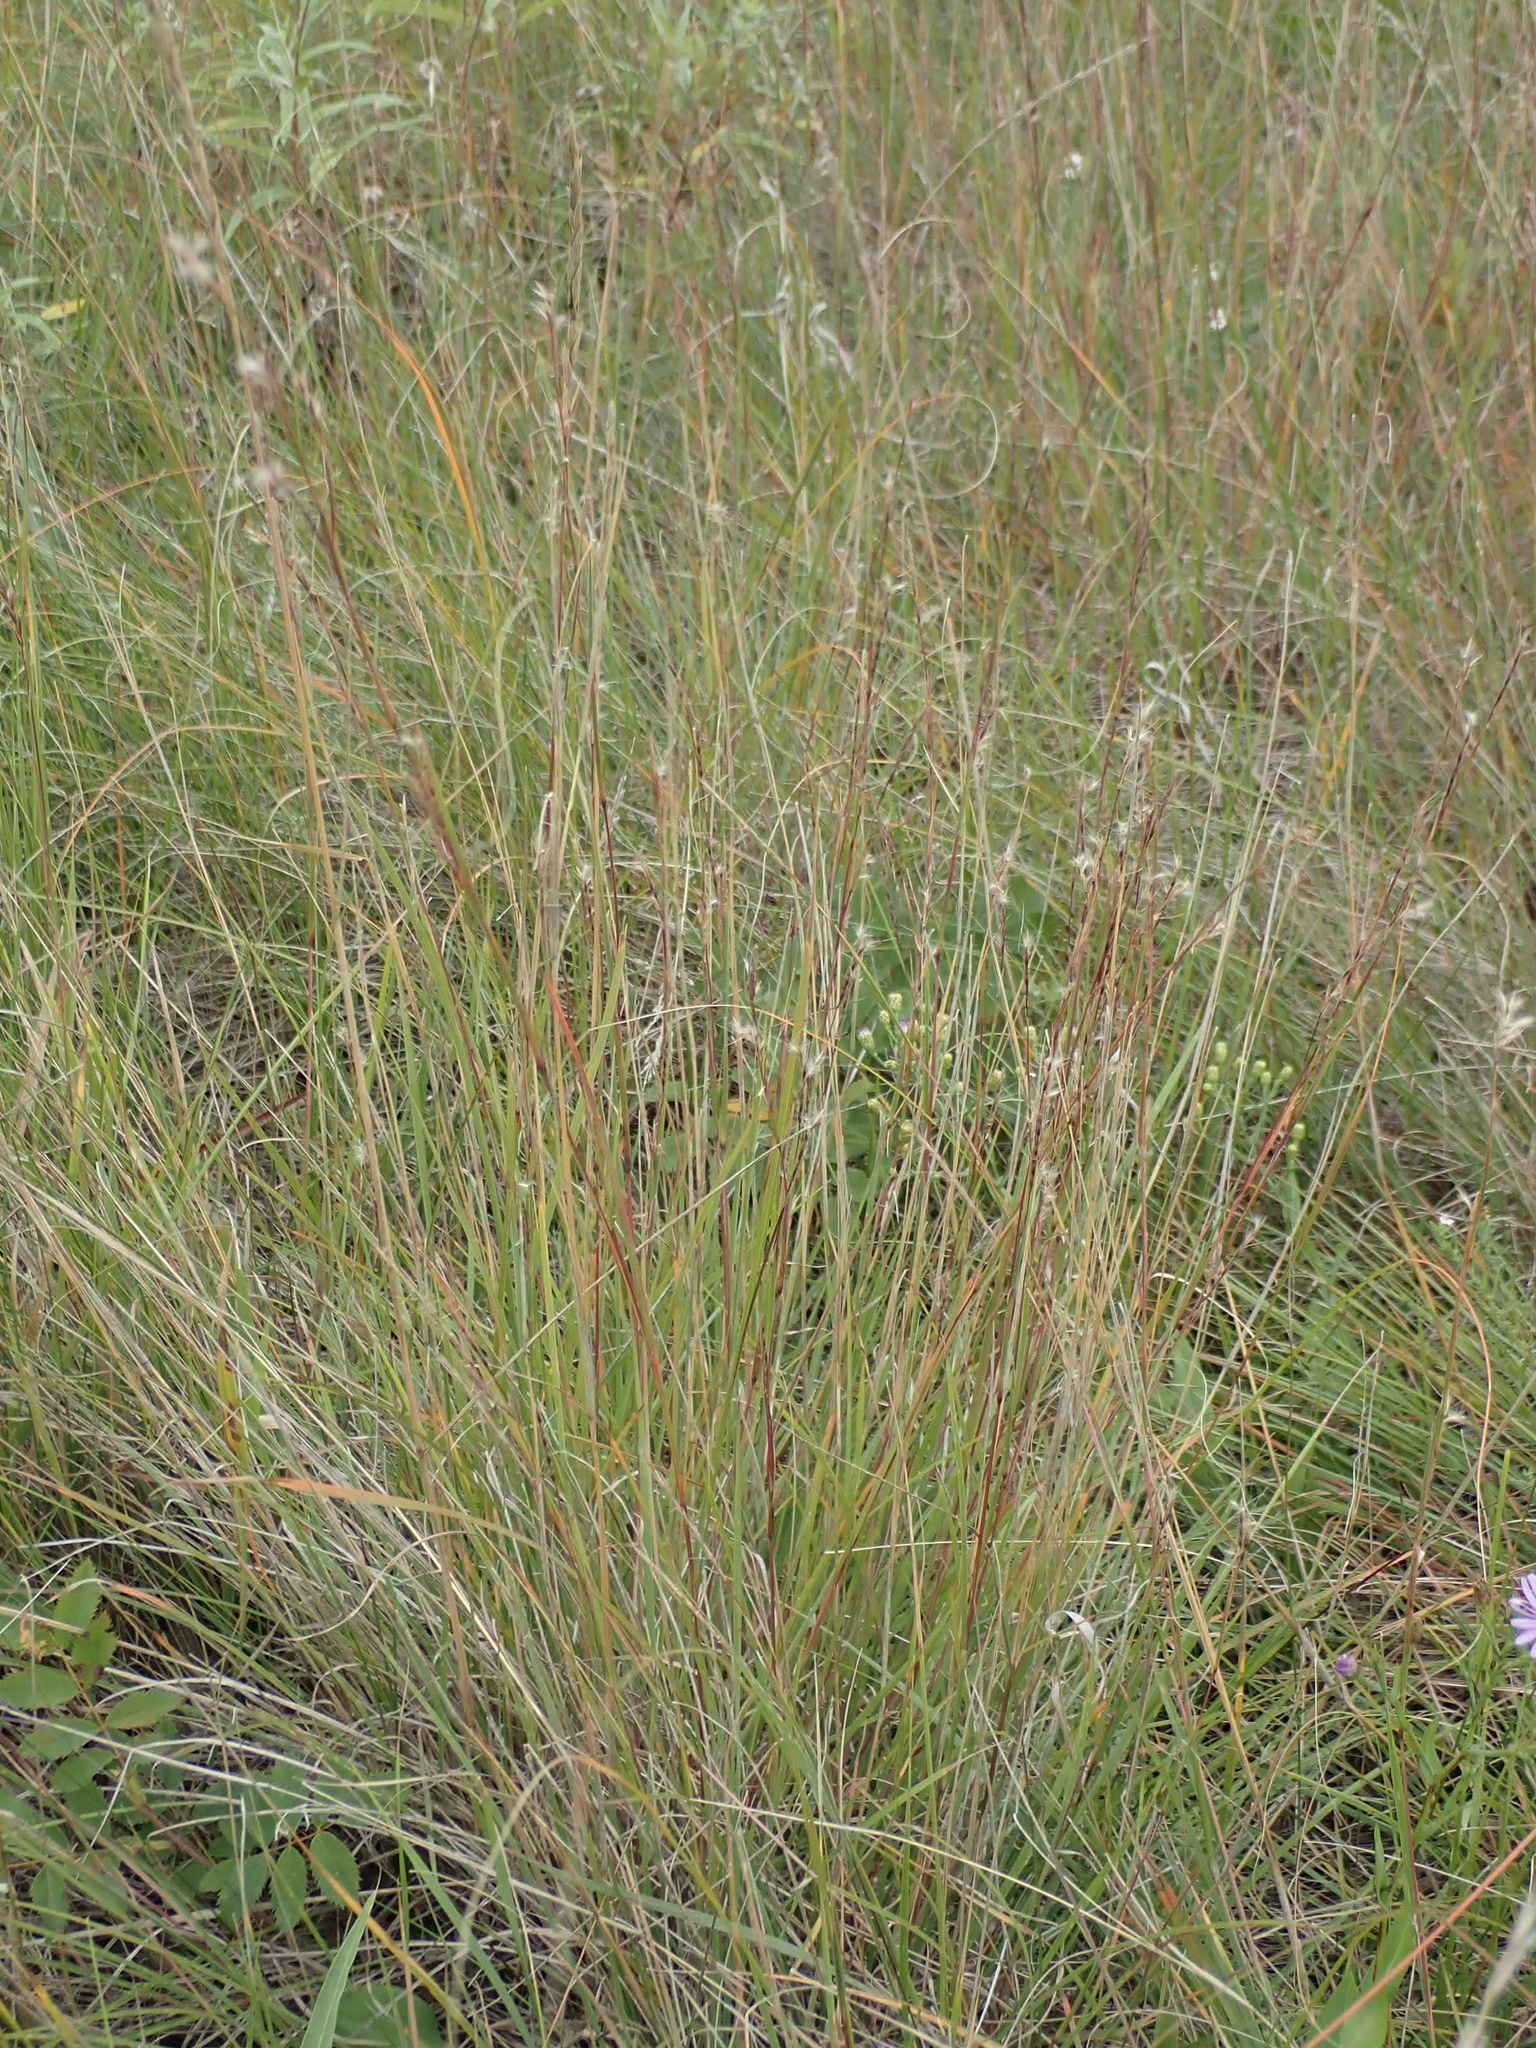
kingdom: Plantae
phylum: Tracheophyta
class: Liliopsida
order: Poales
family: Poaceae
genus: Schizachyrium
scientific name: Schizachyrium scoparium
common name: Little bluestem
